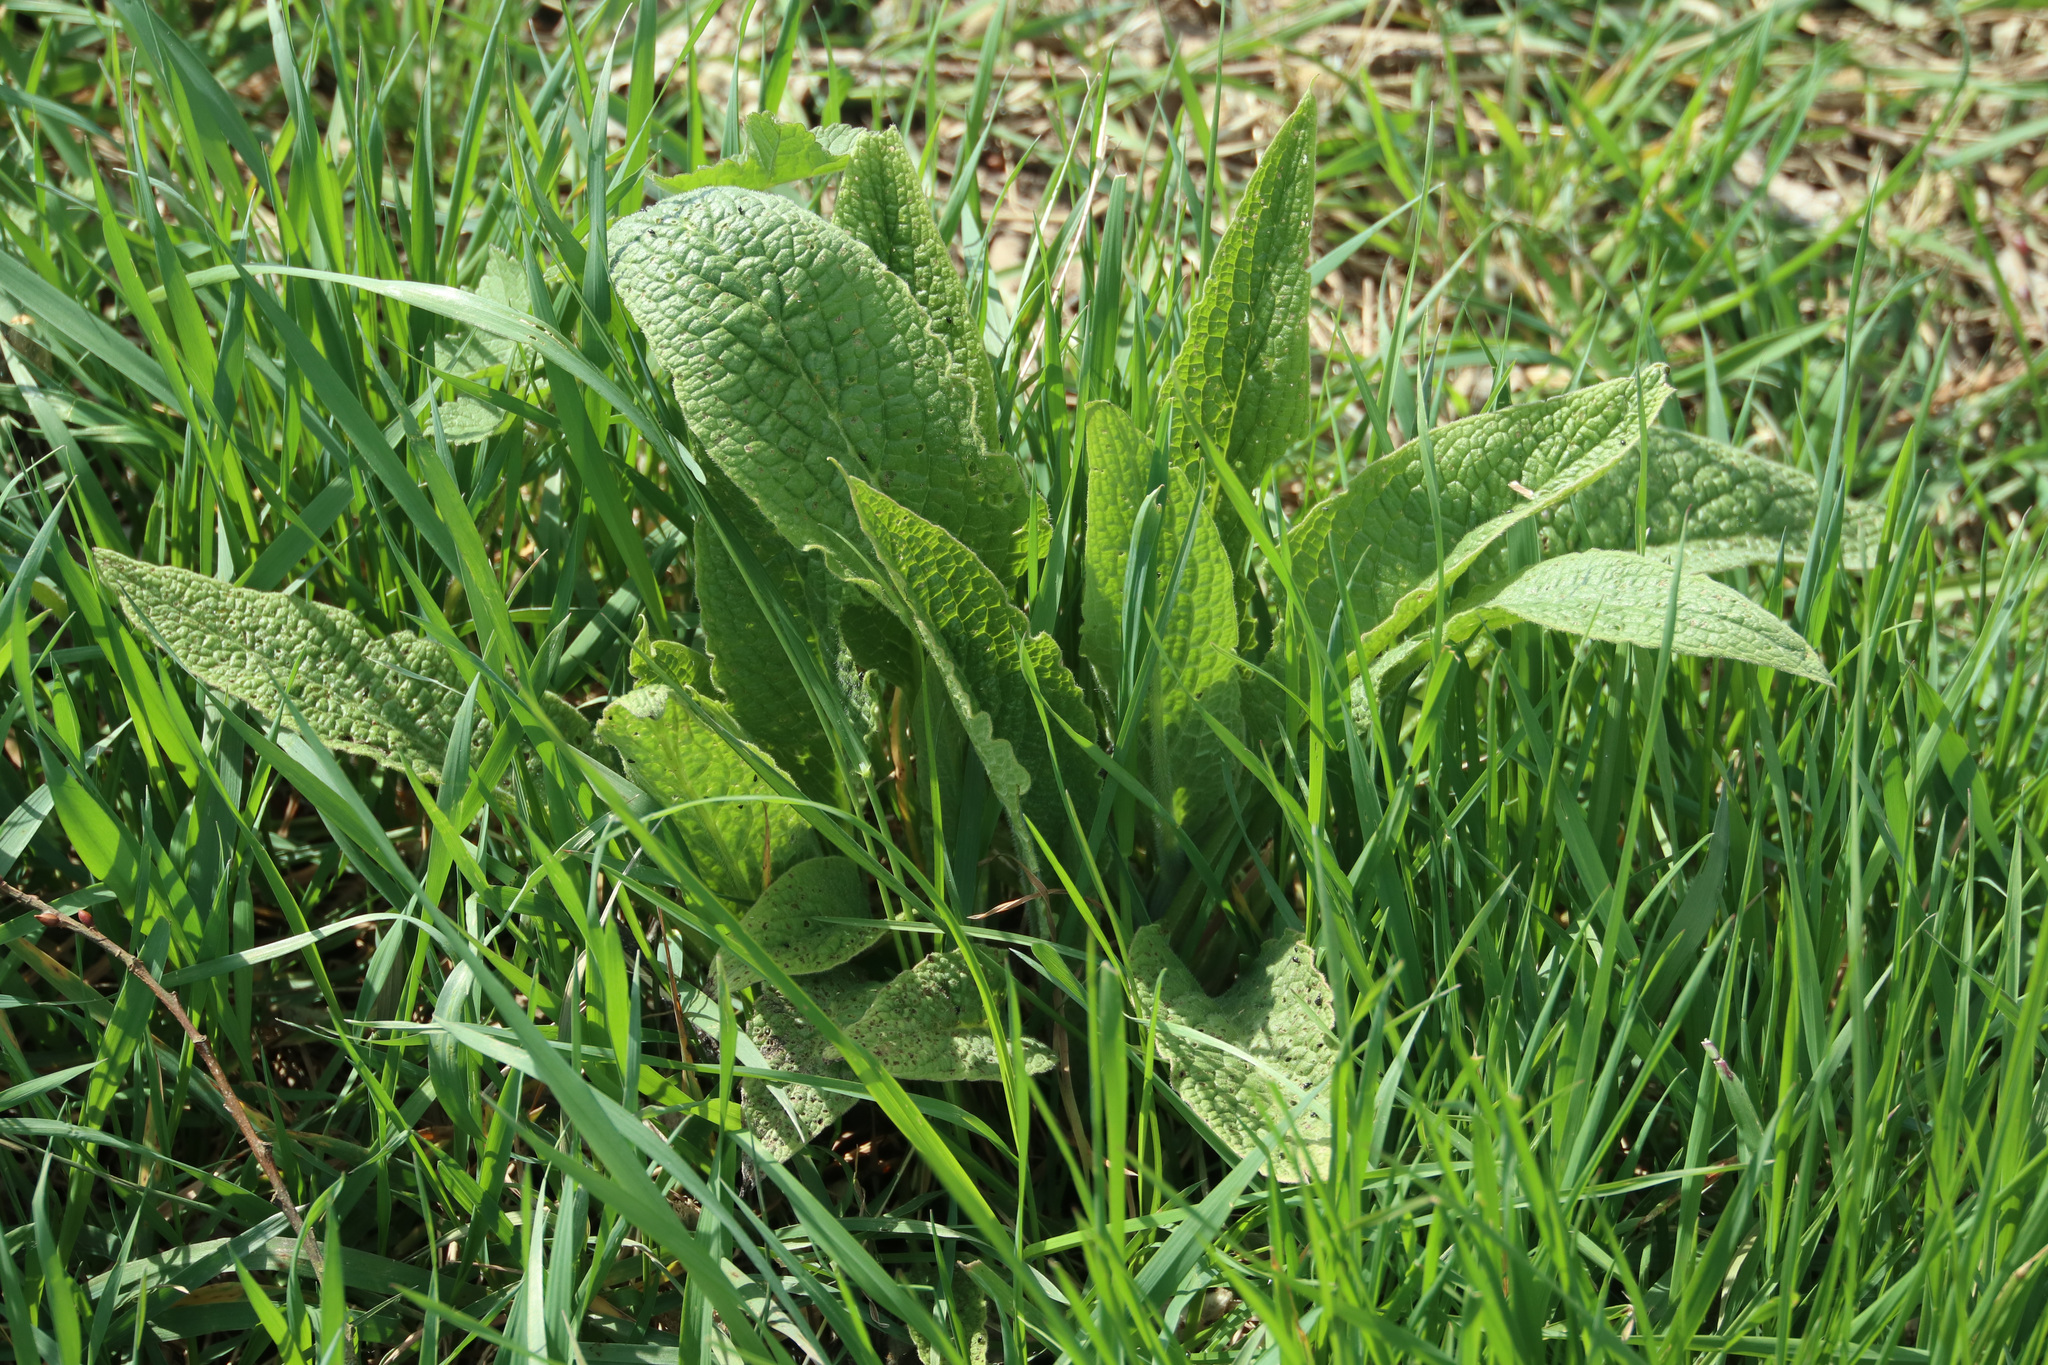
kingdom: Plantae
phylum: Tracheophyta
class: Magnoliopsida
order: Boraginales
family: Boraginaceae
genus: Symphytum
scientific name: Symphytum officinale
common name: Common comfrey
